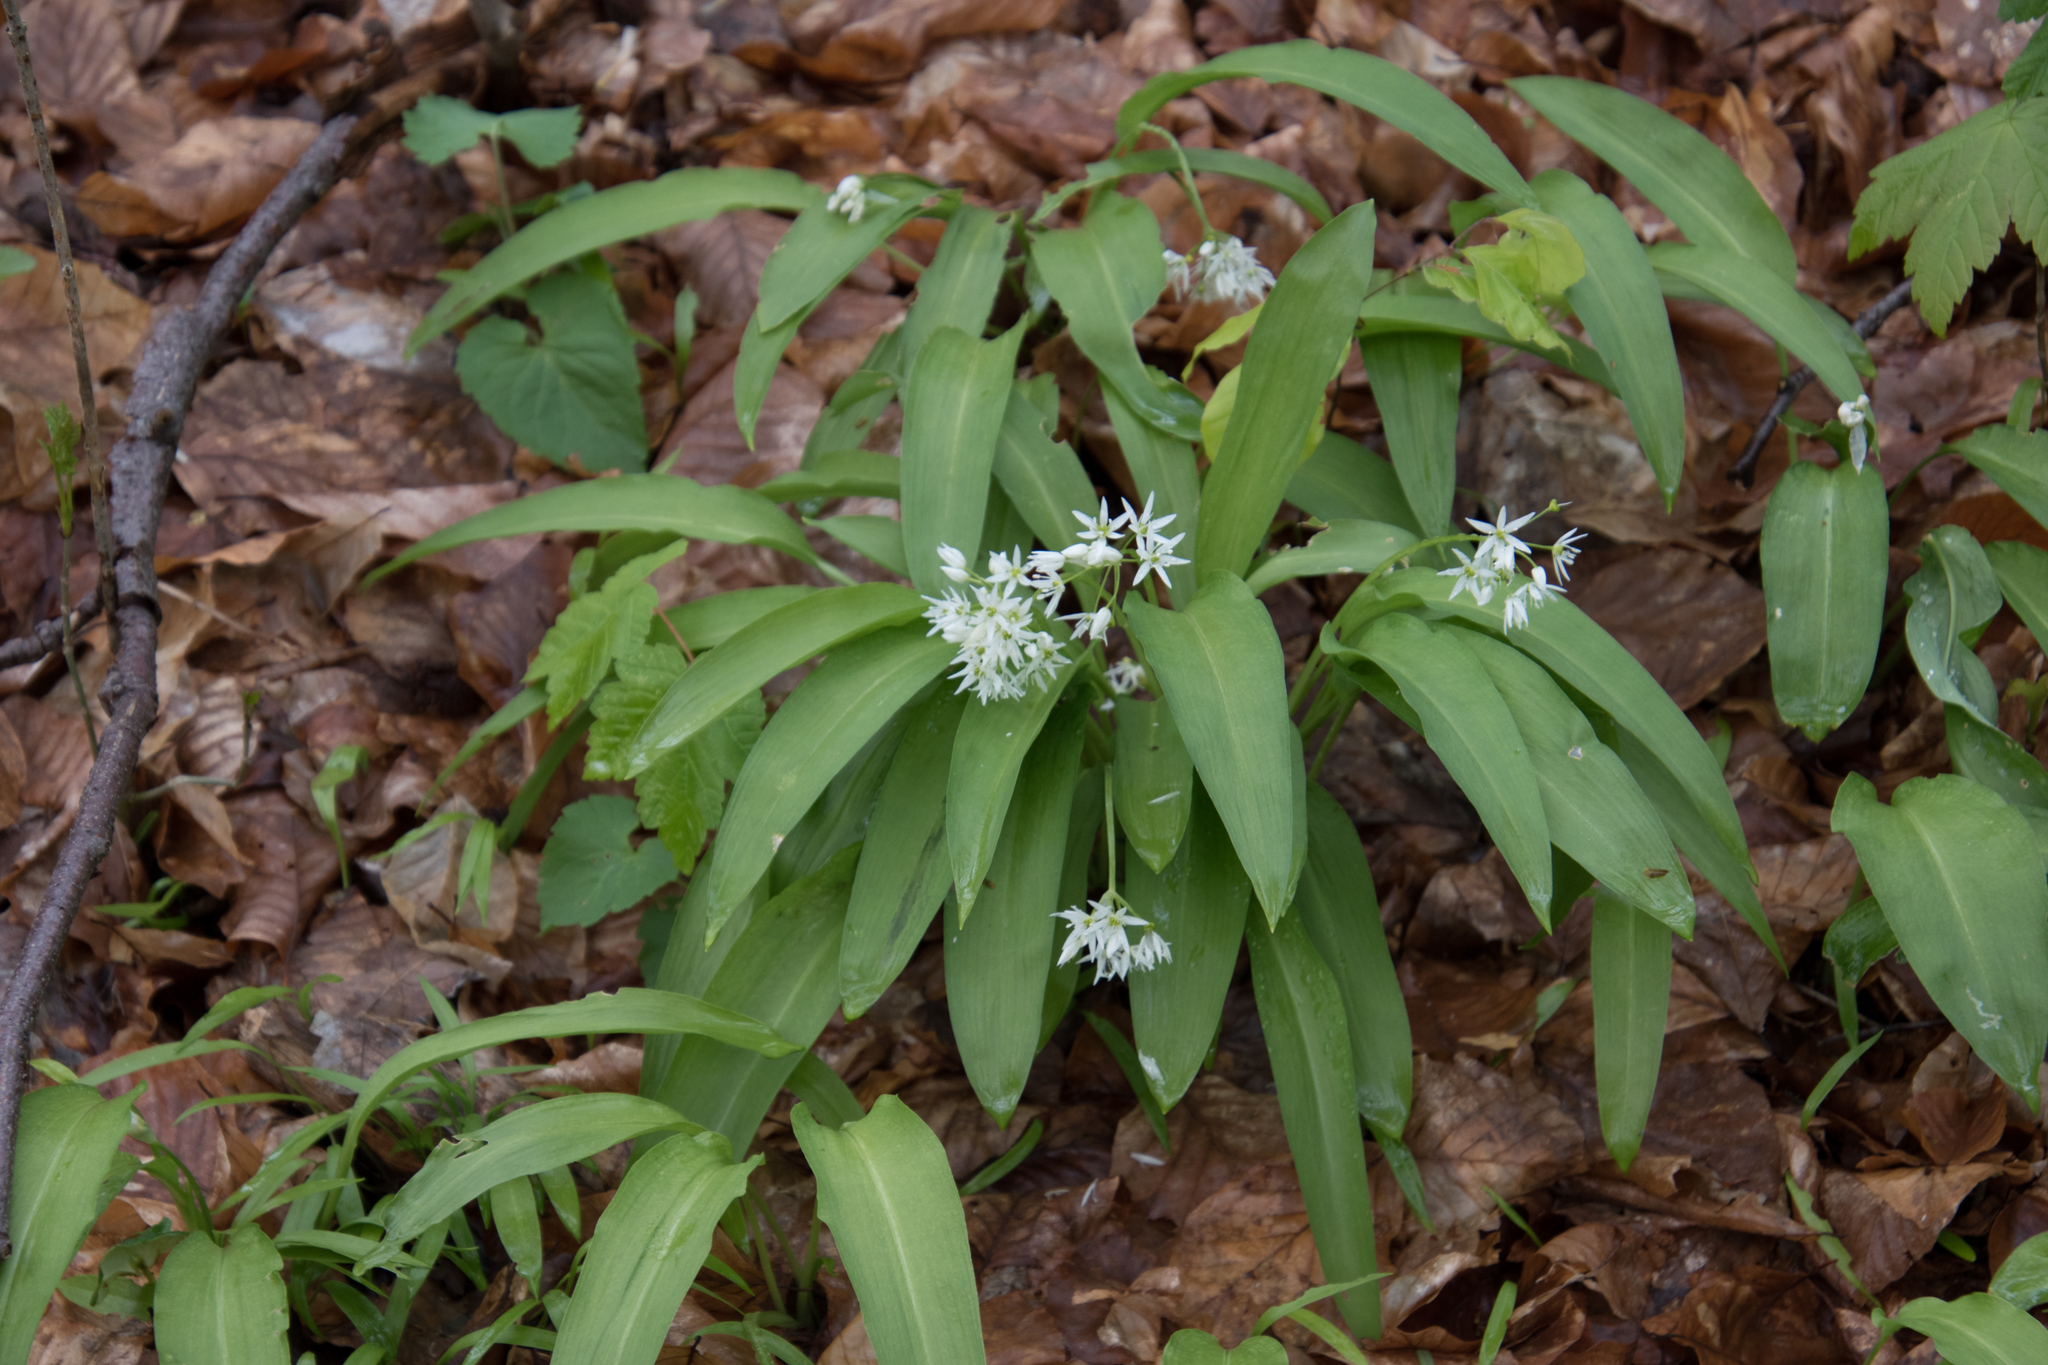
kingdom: Plantae
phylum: Tracheophyta
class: Liliopsida
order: Asparagales
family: Amaryllidaceae
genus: Allium
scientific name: Allium ursinum
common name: Ramsons
